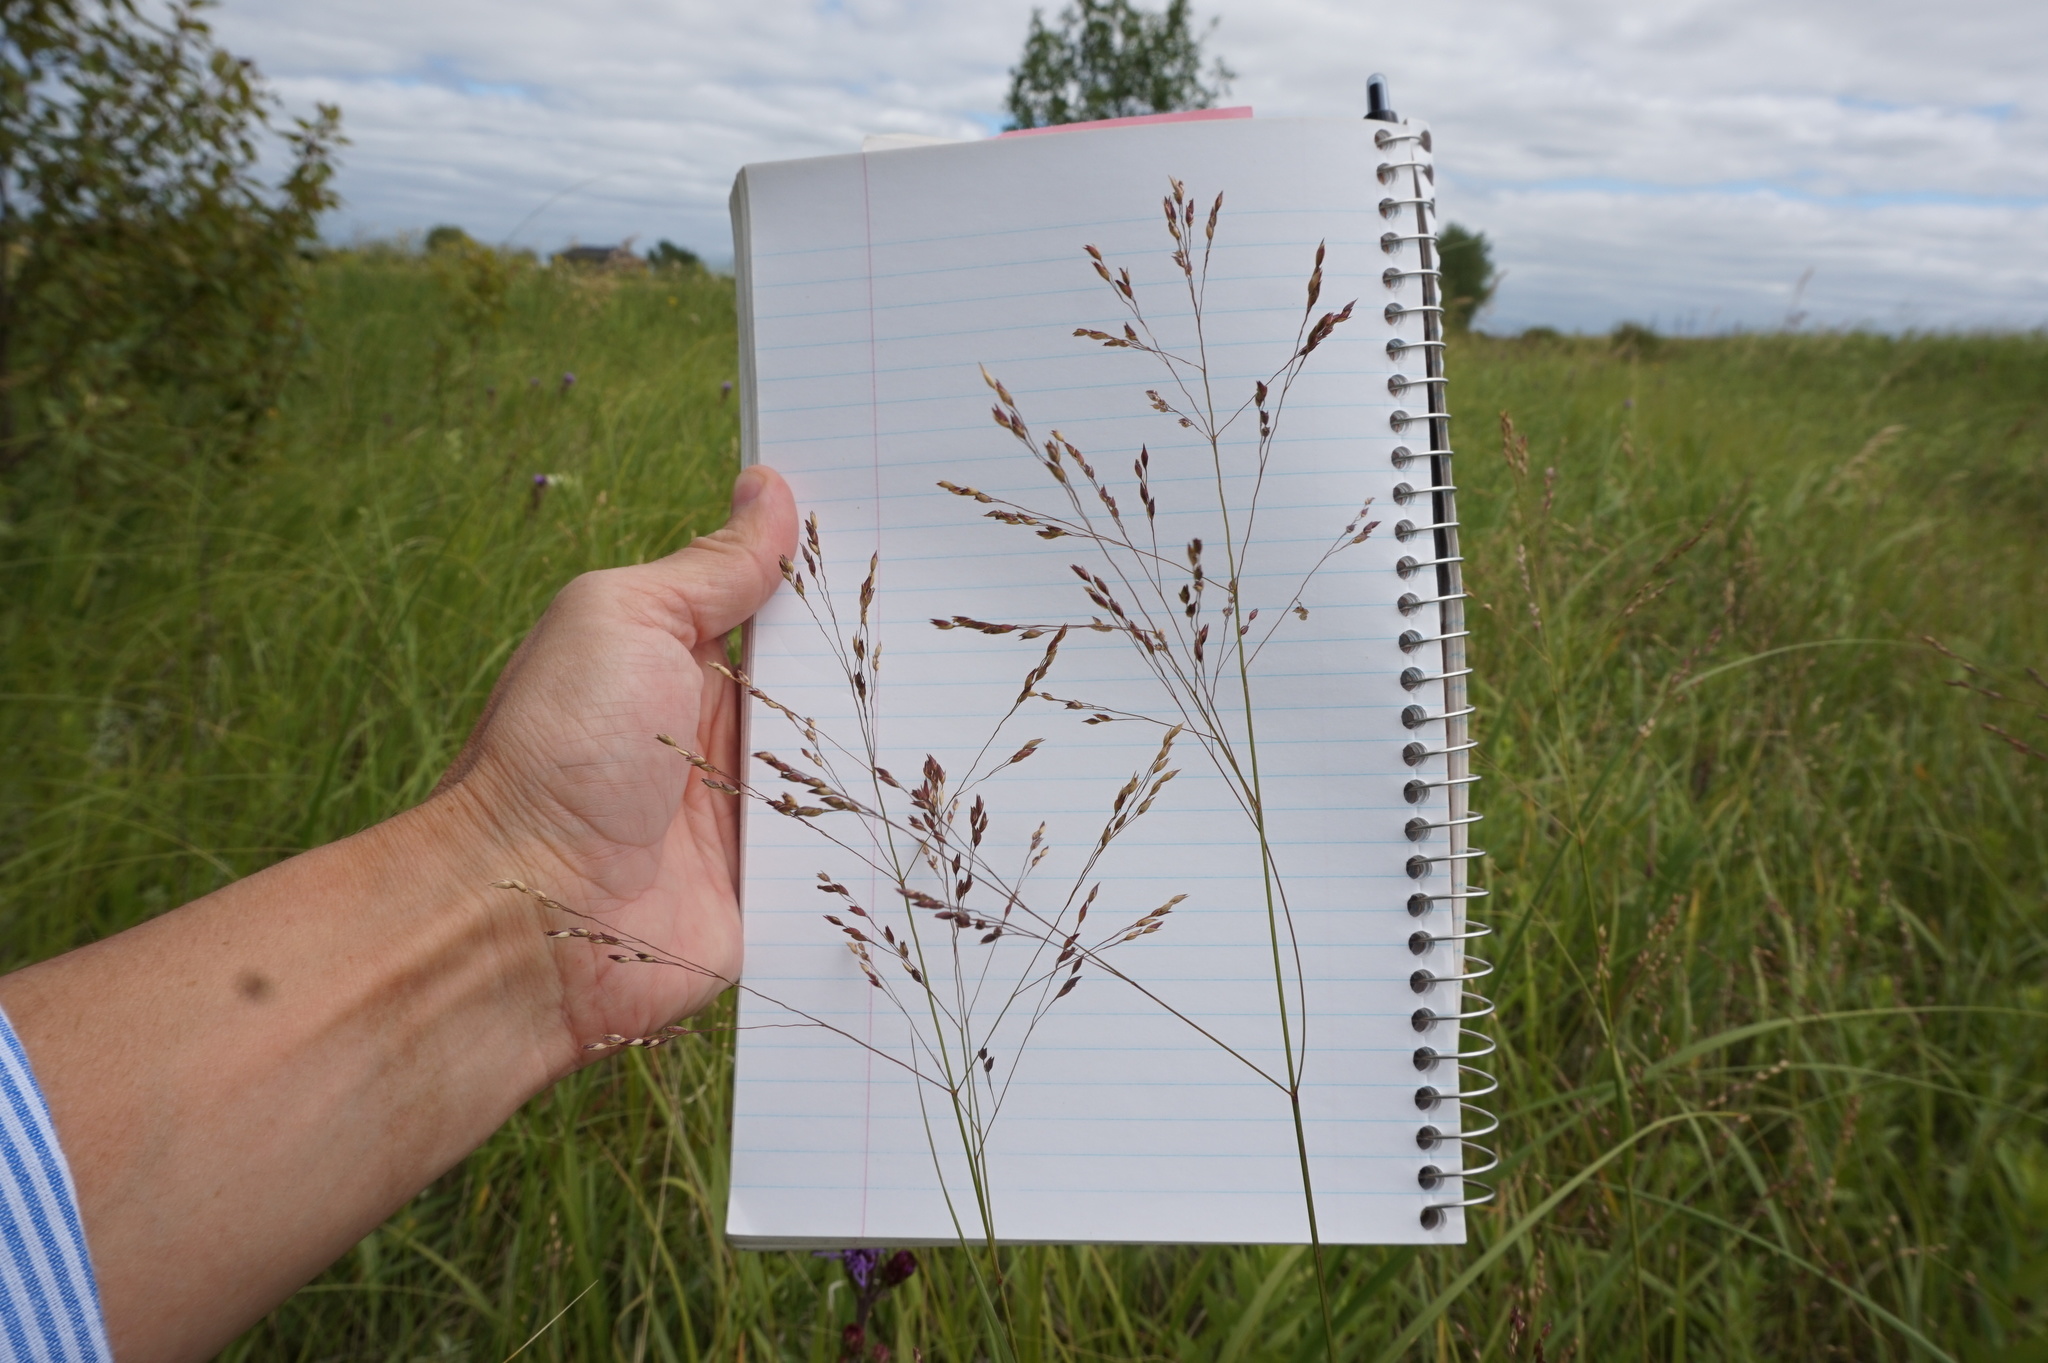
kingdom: Plantae
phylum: Tracheophyta
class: Liliopsida
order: Poales
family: Poaceae
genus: Panicum
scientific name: Panicum virgatum
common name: Switchgrass
